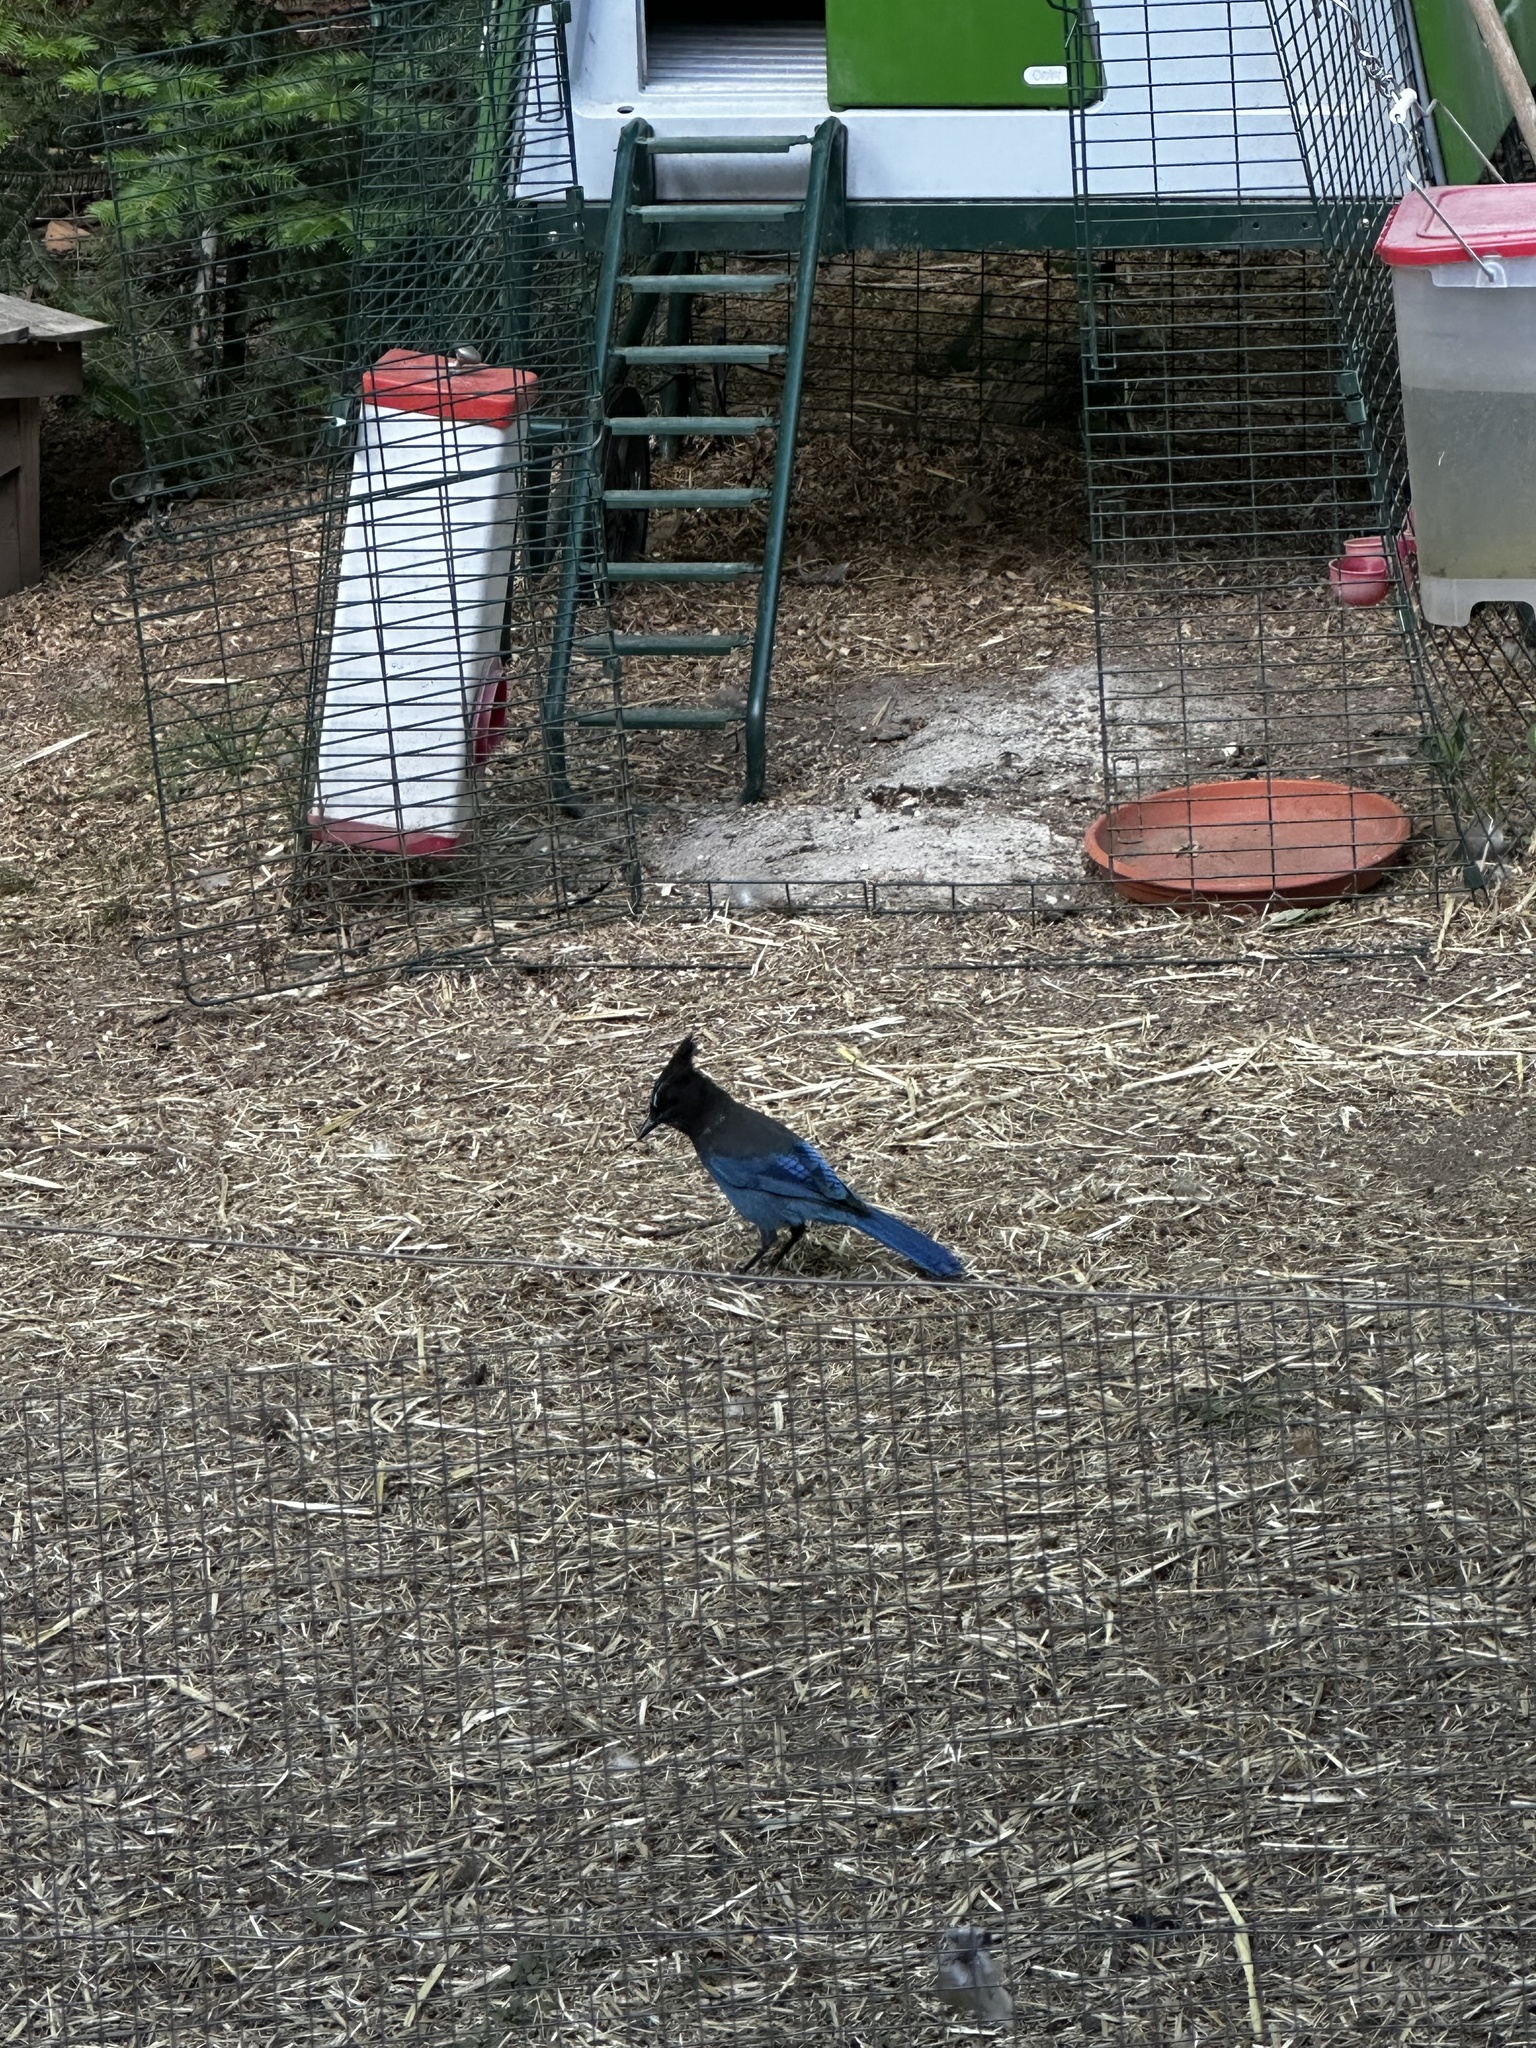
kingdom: Animalia
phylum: Chordata
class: Aves
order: Passeriformes
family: Corvidae
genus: Cyanocitta
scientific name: Cyanocitta stelleri
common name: Steller's jay
